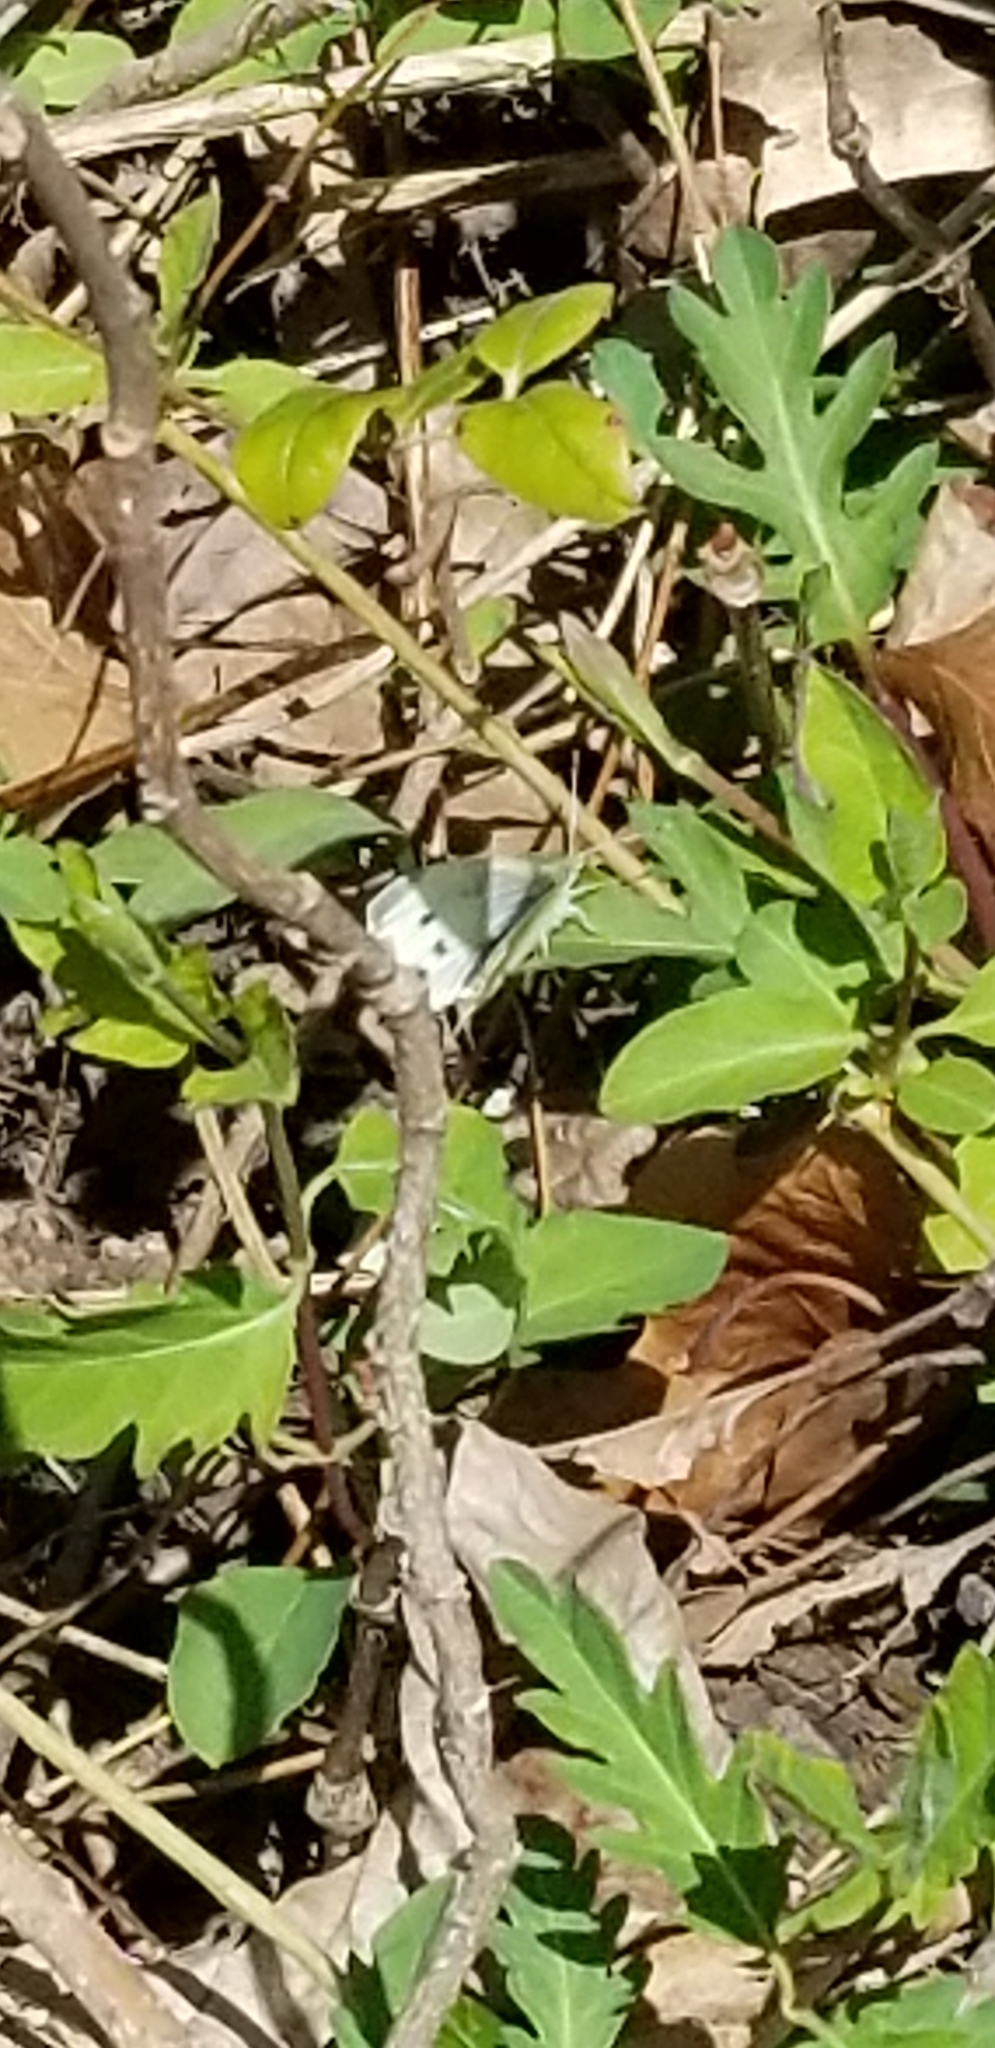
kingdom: Animalia
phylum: Arthropoda
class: Insecta
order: Lepidoptera
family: Pieridae
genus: Pieris
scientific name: Pieris rapae
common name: Small white
